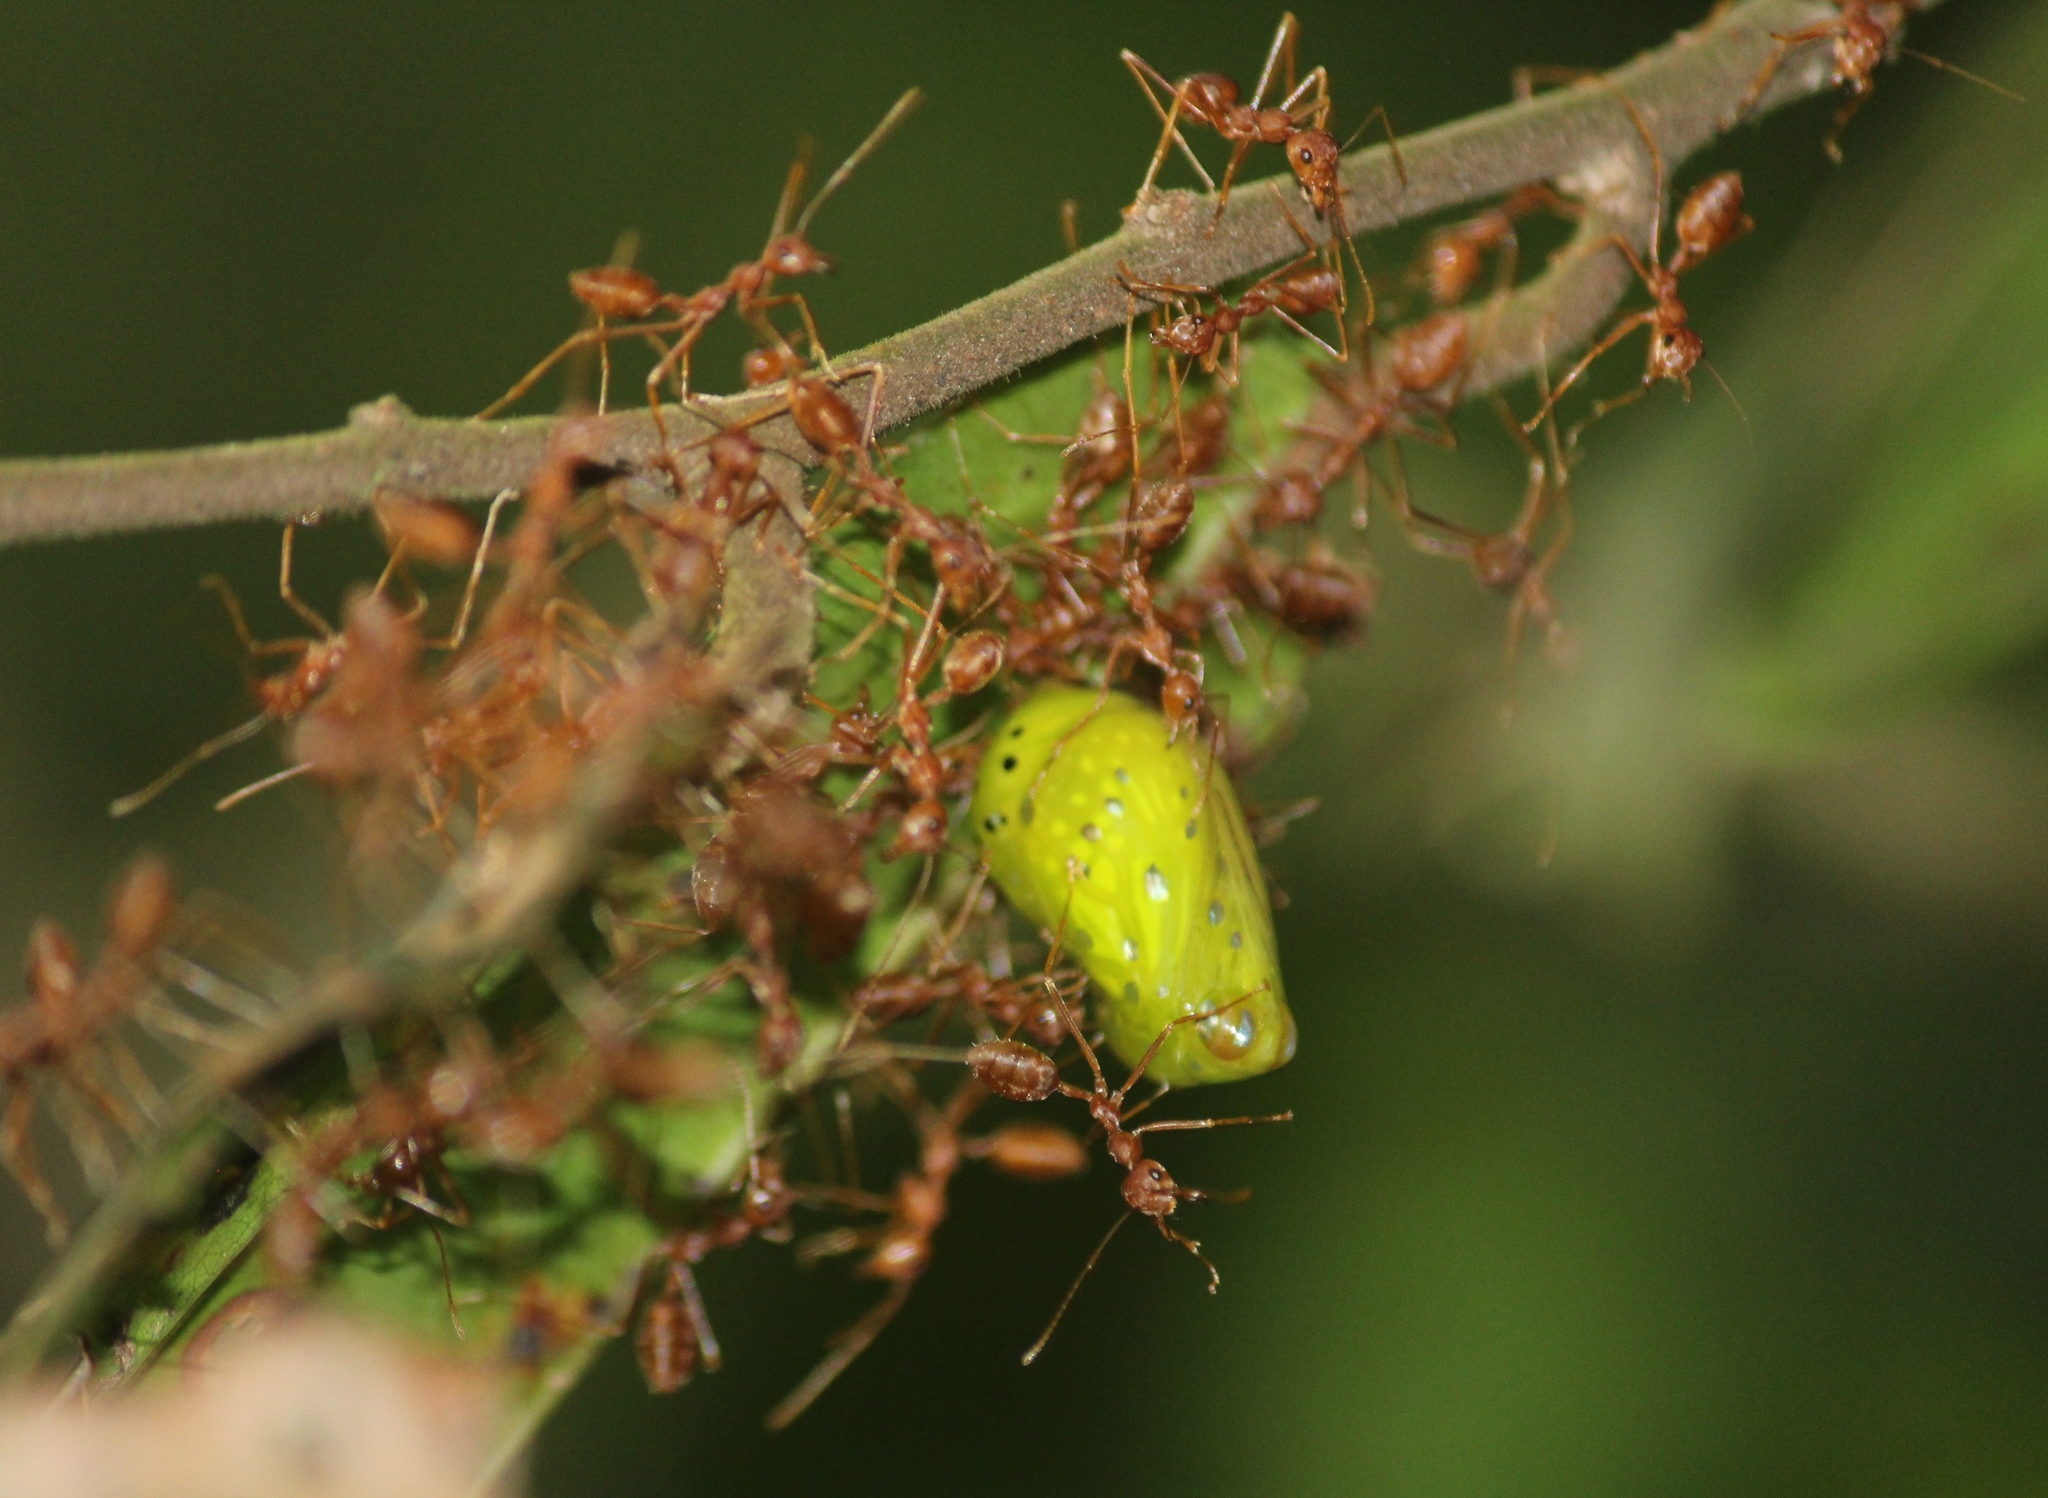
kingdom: Animalia
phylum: Arthropoda
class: Insecta
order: Lepidoptera
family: Nymphalidae
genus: Parantica
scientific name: Parantica aglea
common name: Glassy tiger
